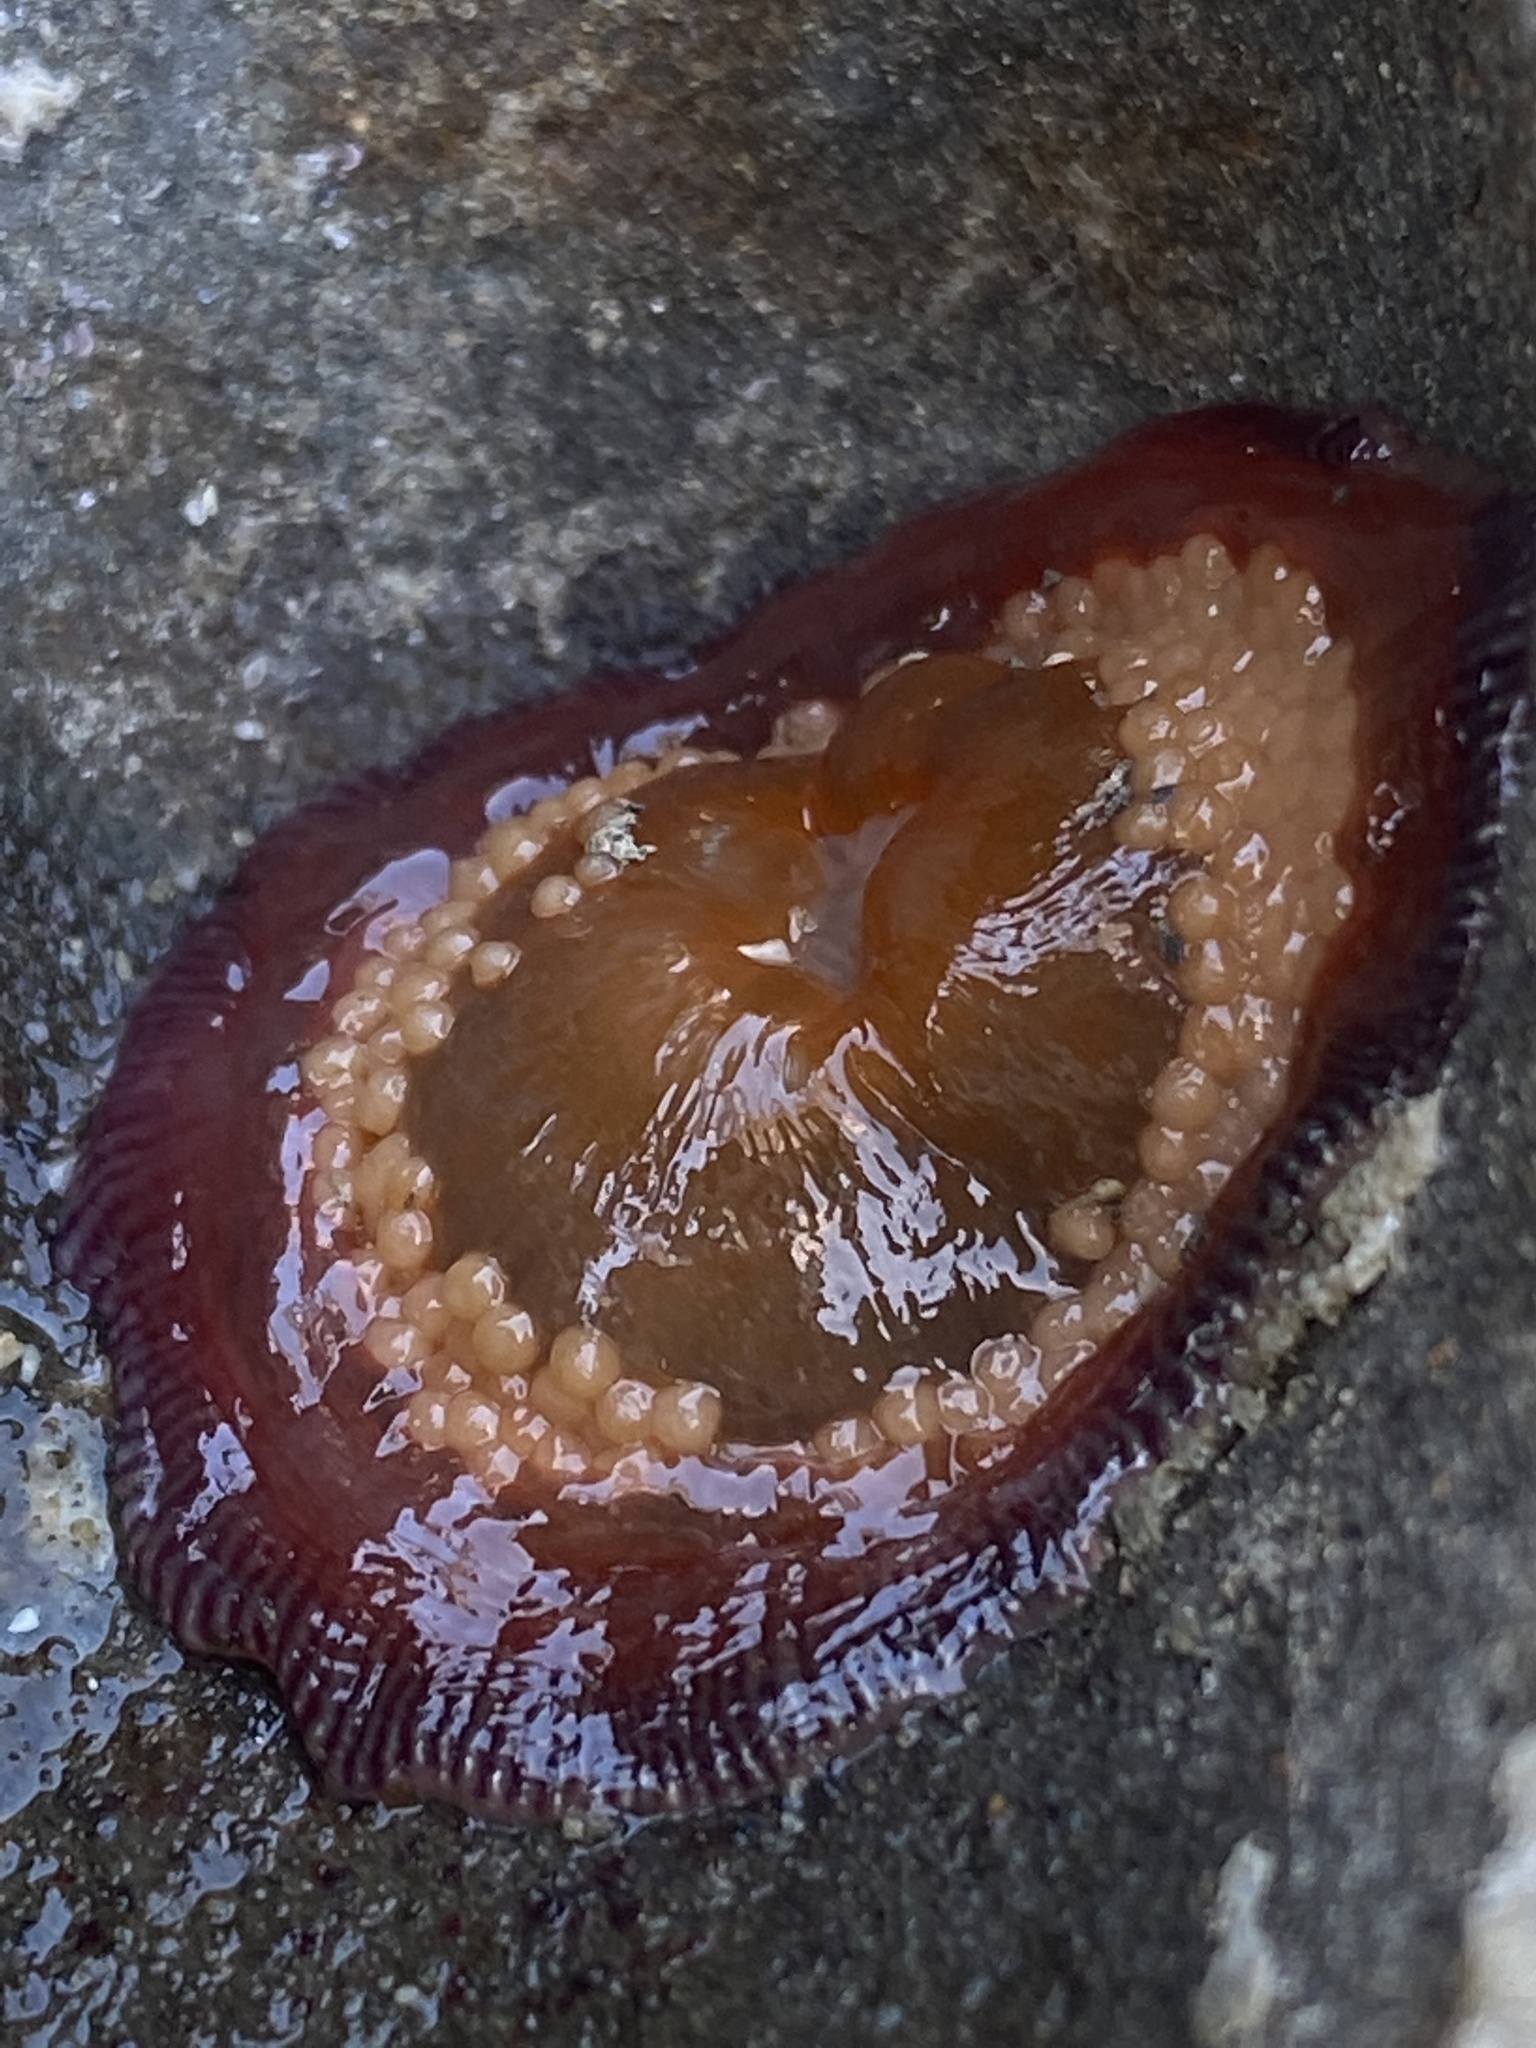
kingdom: Animalia
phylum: Cnidaria
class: Anthozoa
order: Actiniaria
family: Actiniidae
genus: Epiactis
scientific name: Epiactis lisbethae
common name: Giant brooding anemone
